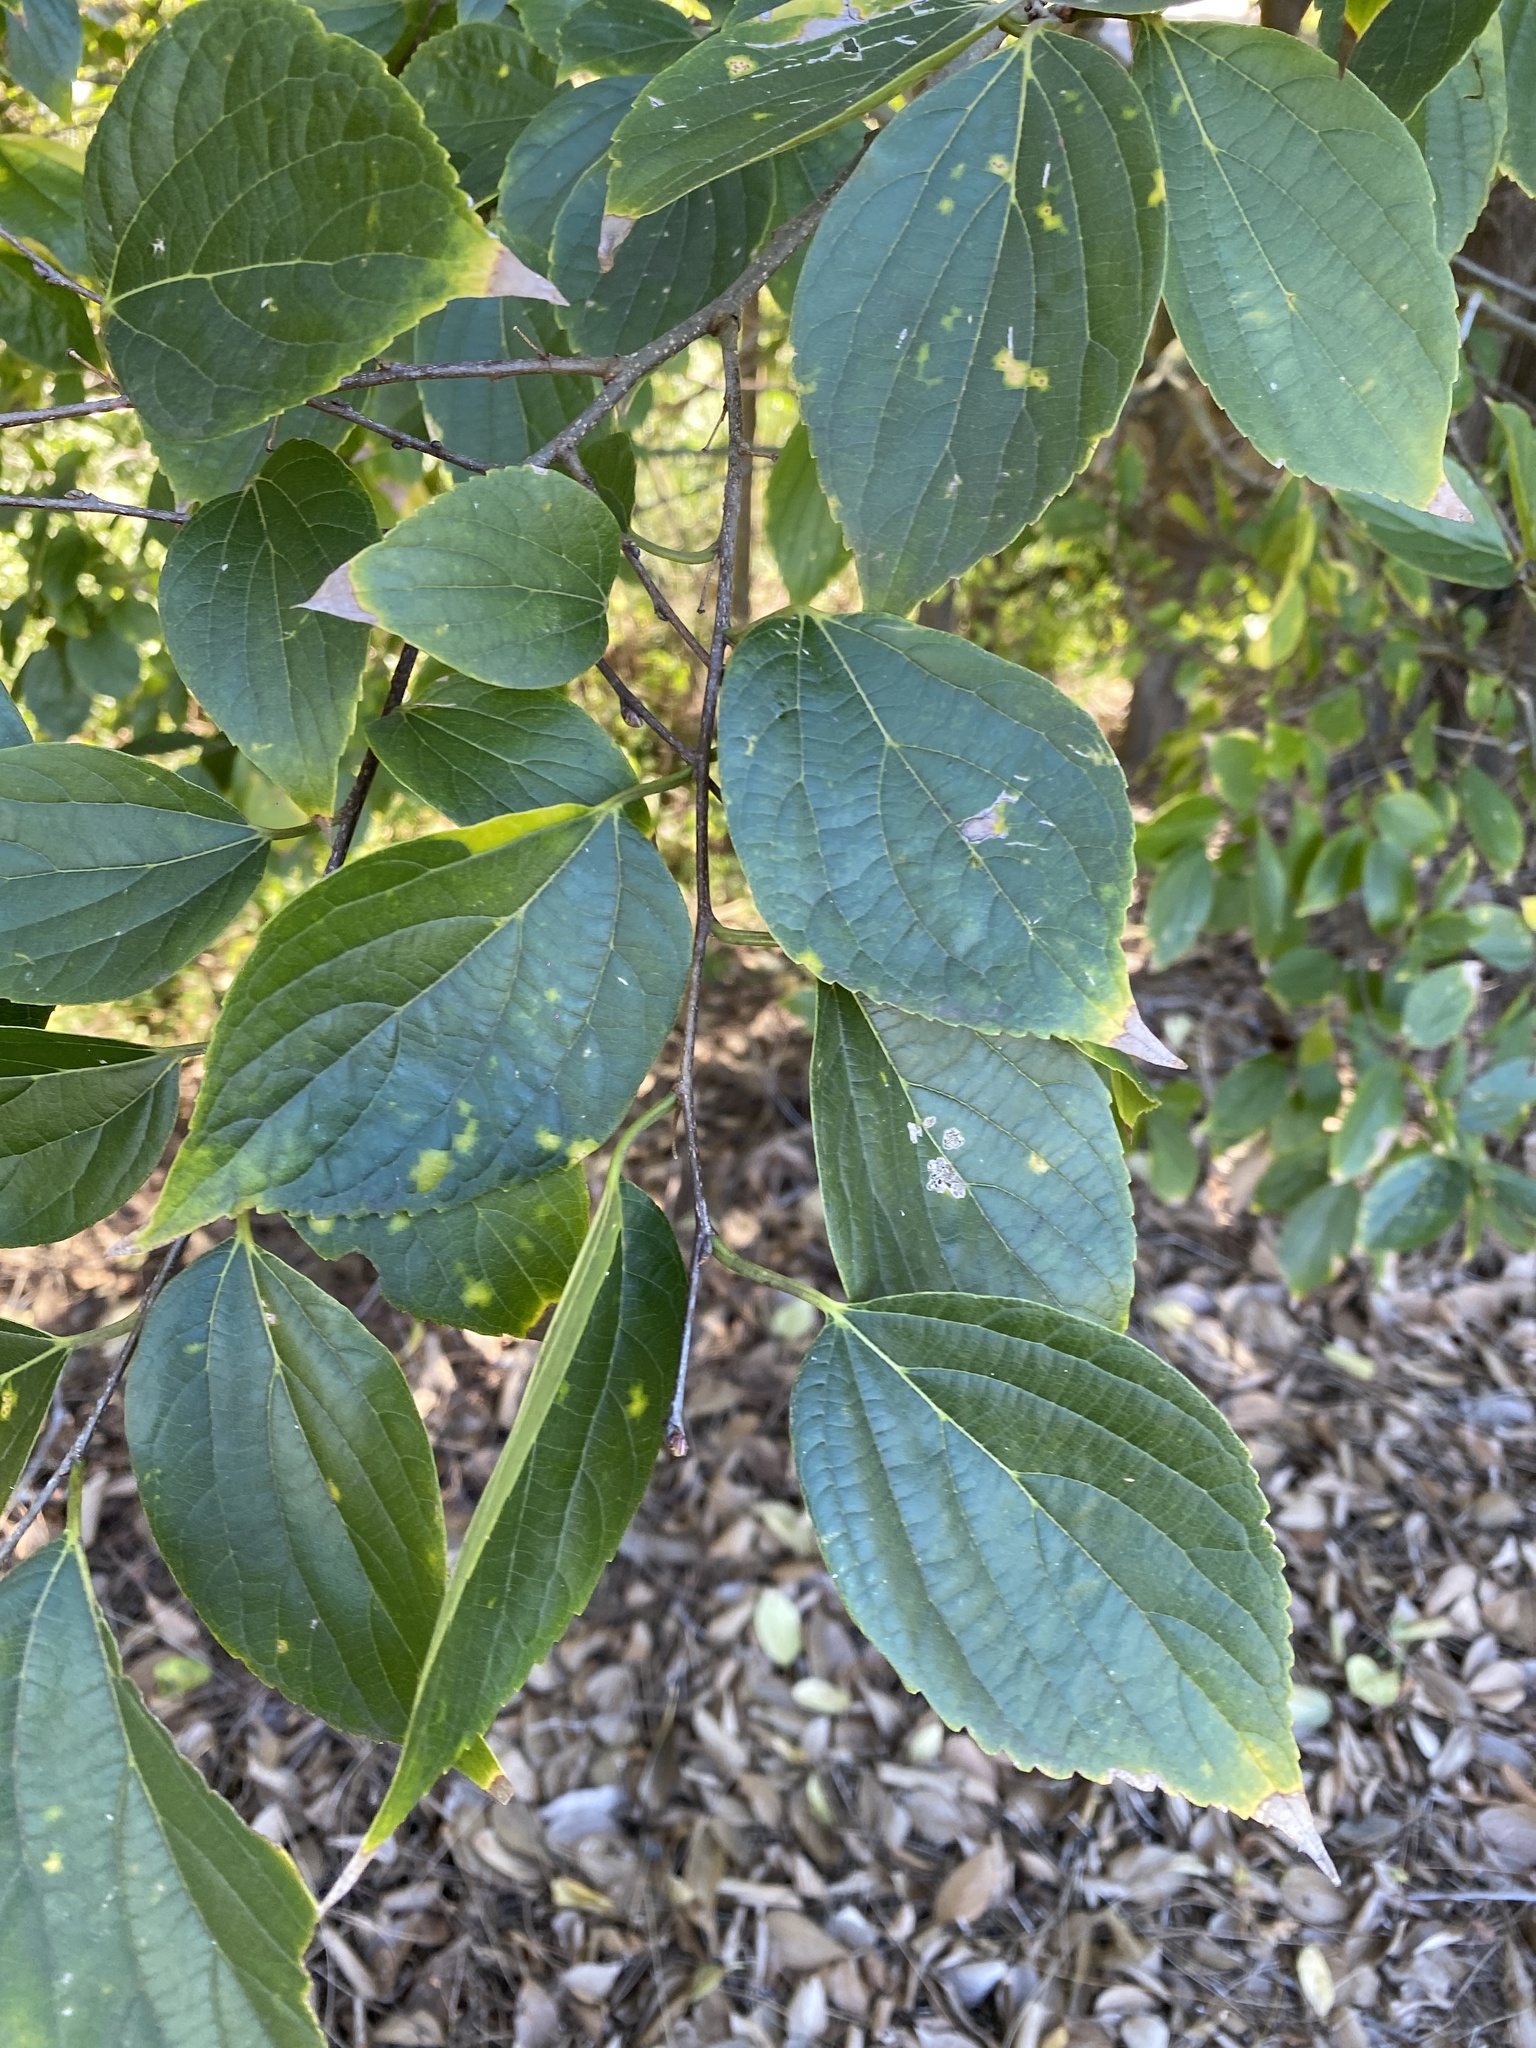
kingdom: Plantae
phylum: Tracheophyta
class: Magnoliopsida
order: Rosales
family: Cannabaceae
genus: Celtis
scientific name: Celtis sinensis
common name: Chinese hackberry
